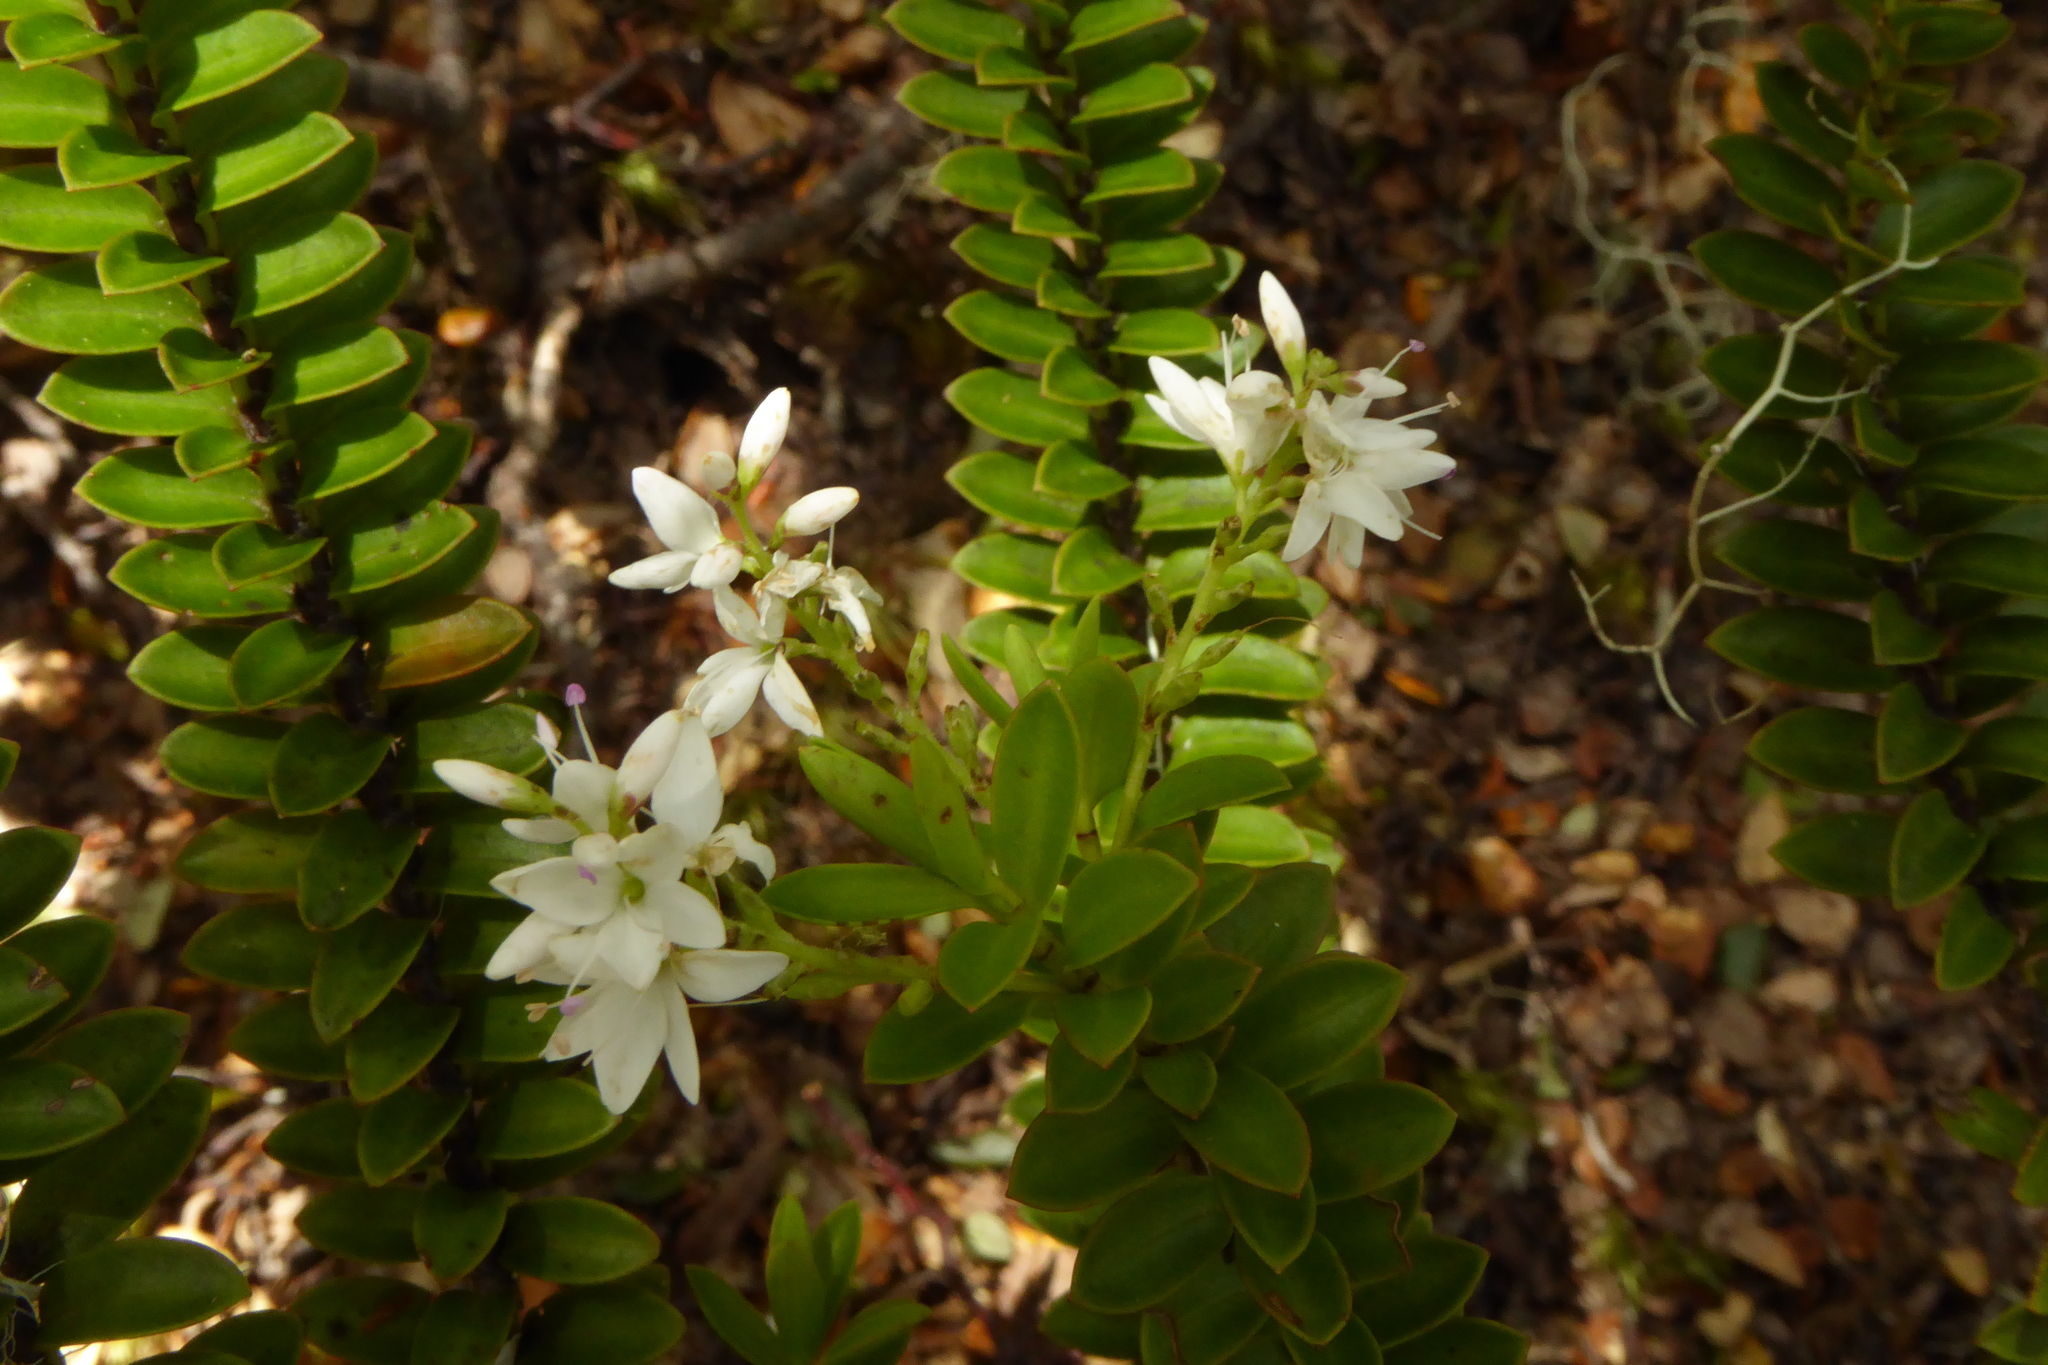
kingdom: Plantae
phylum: Tracheophyta
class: Magnoliopsida
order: Lamiales
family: Plantaginaceae
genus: Veronica
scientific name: Veronica vernicosa
